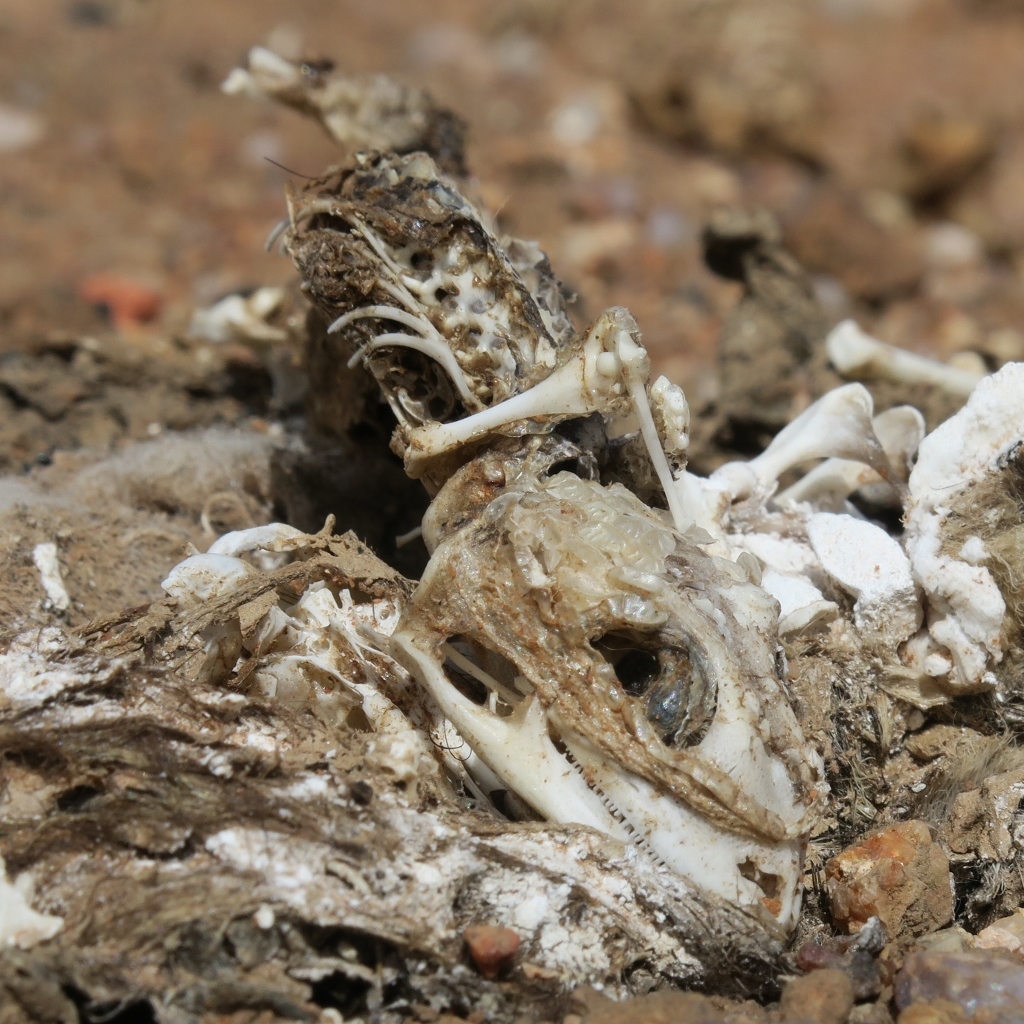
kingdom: Animalia
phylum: Chordata
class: Squamata
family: Gekkonidae
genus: Chondrodactylus
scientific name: Chondrodactylus bibronii
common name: Bibron's gecko
